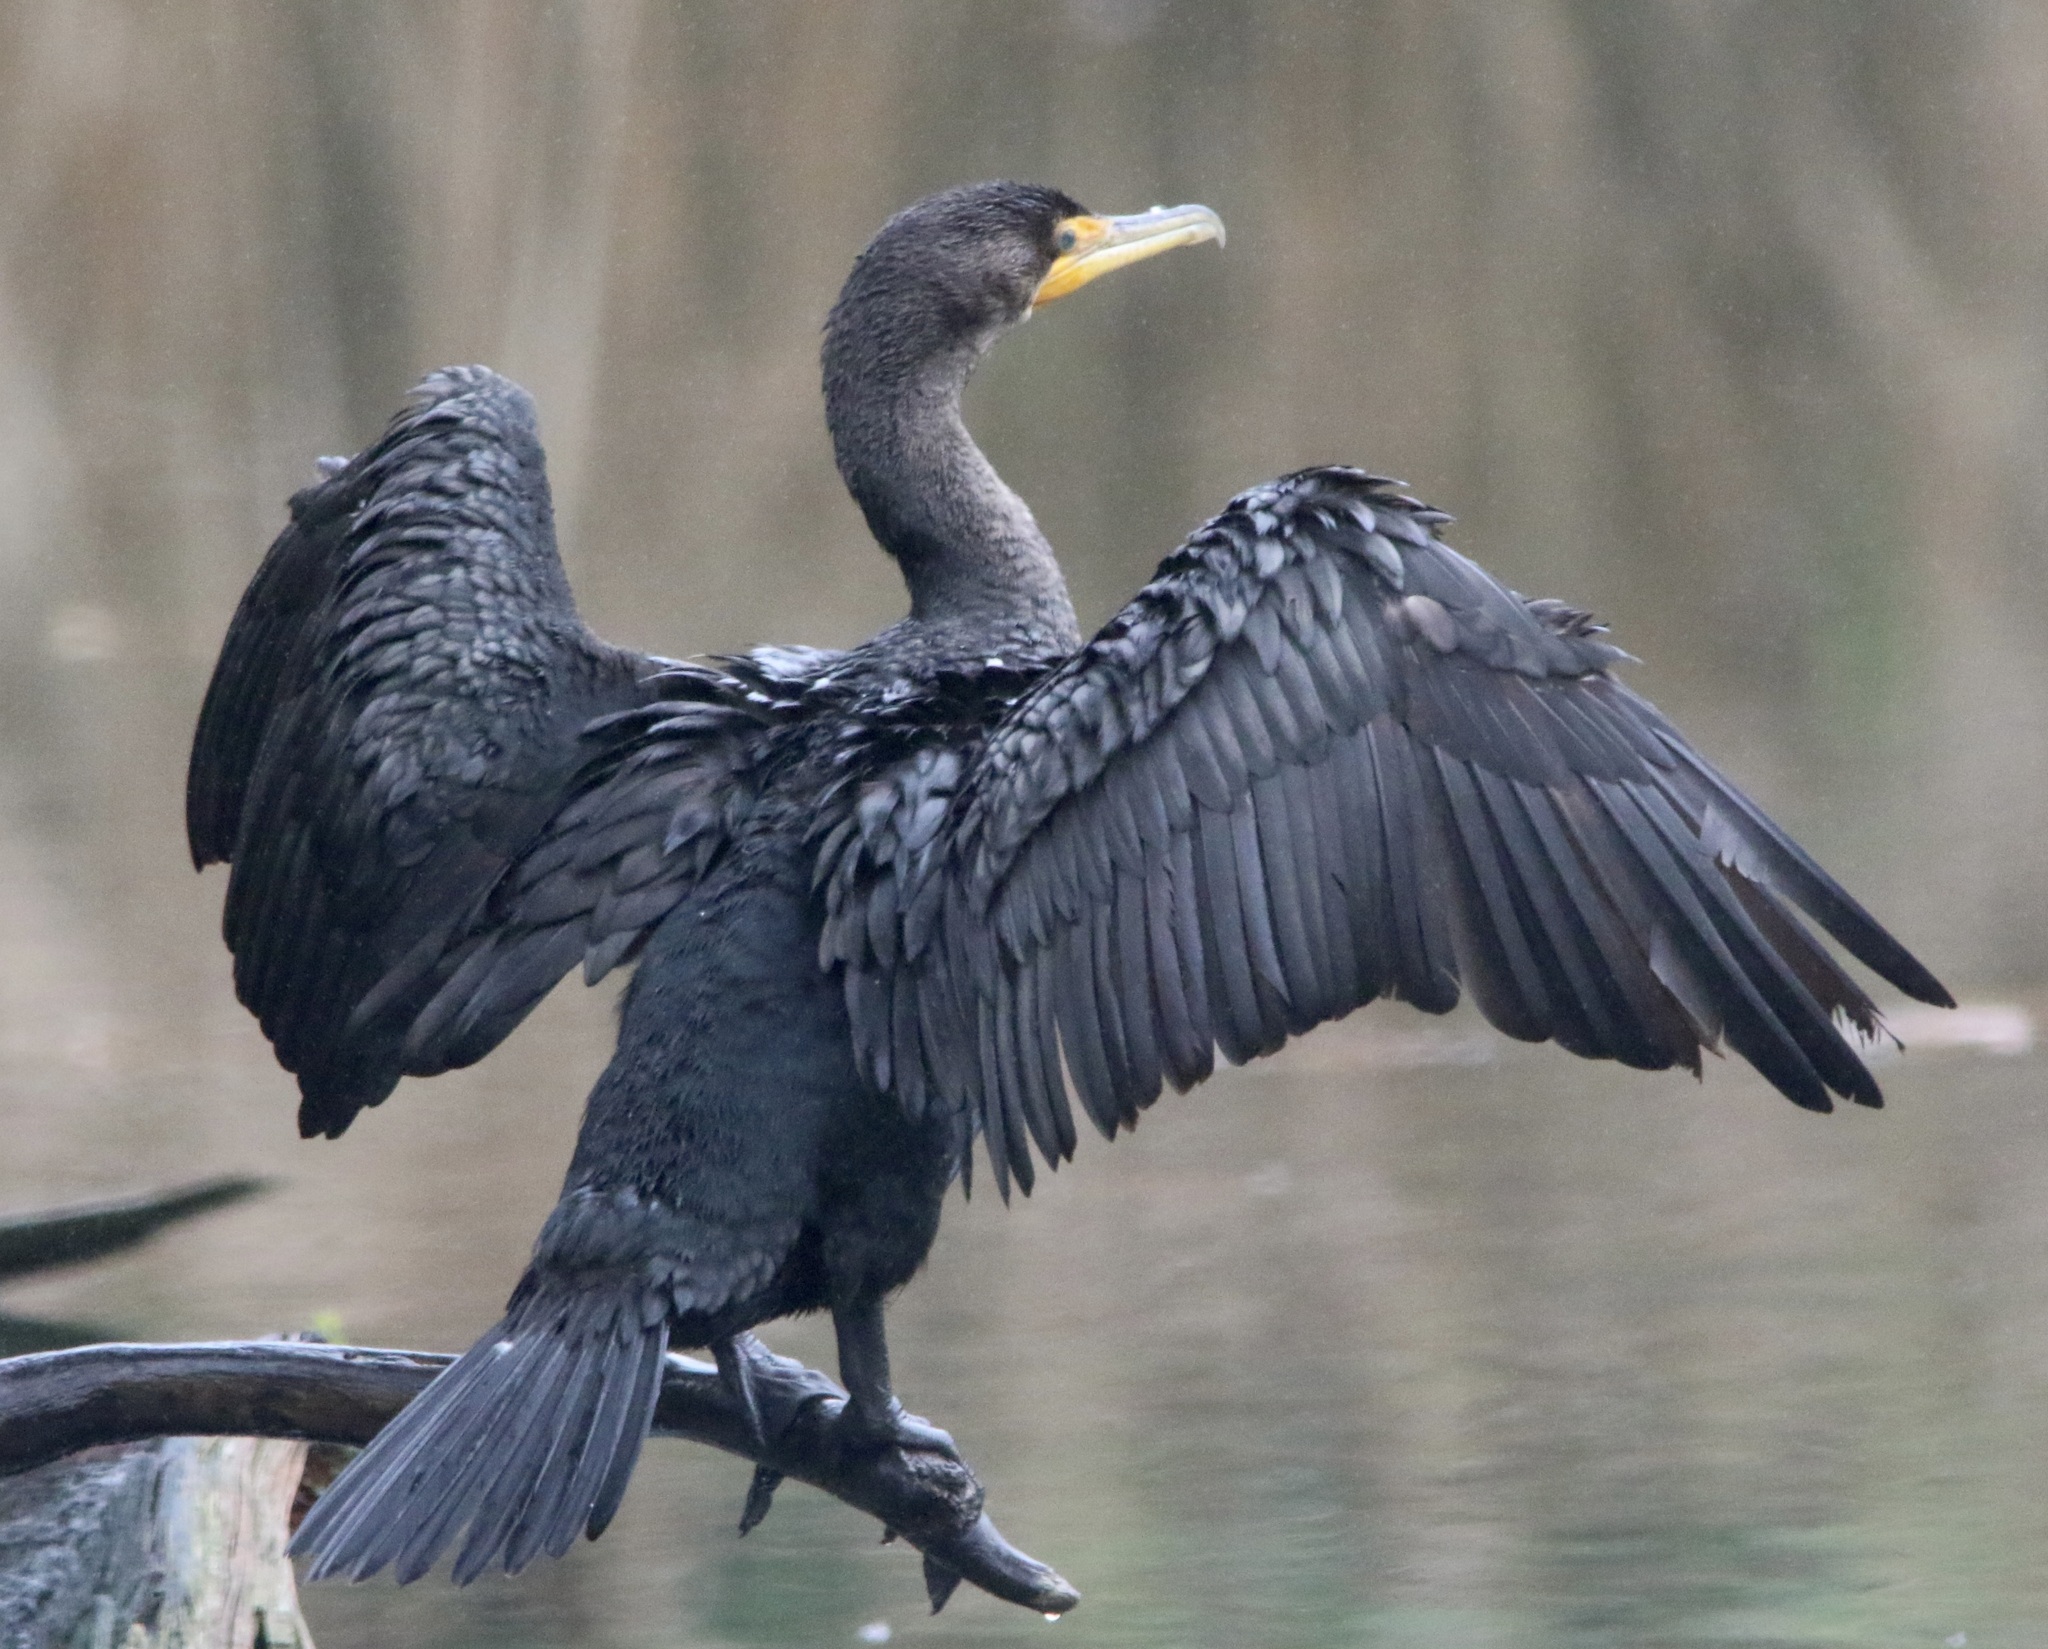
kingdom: Animalia
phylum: Chordata
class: Aves
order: Suliformes
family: Phalacrocoracidae
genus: Phalacrocorax
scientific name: Phalacrocorax auritus
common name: Double-crested cormorant
